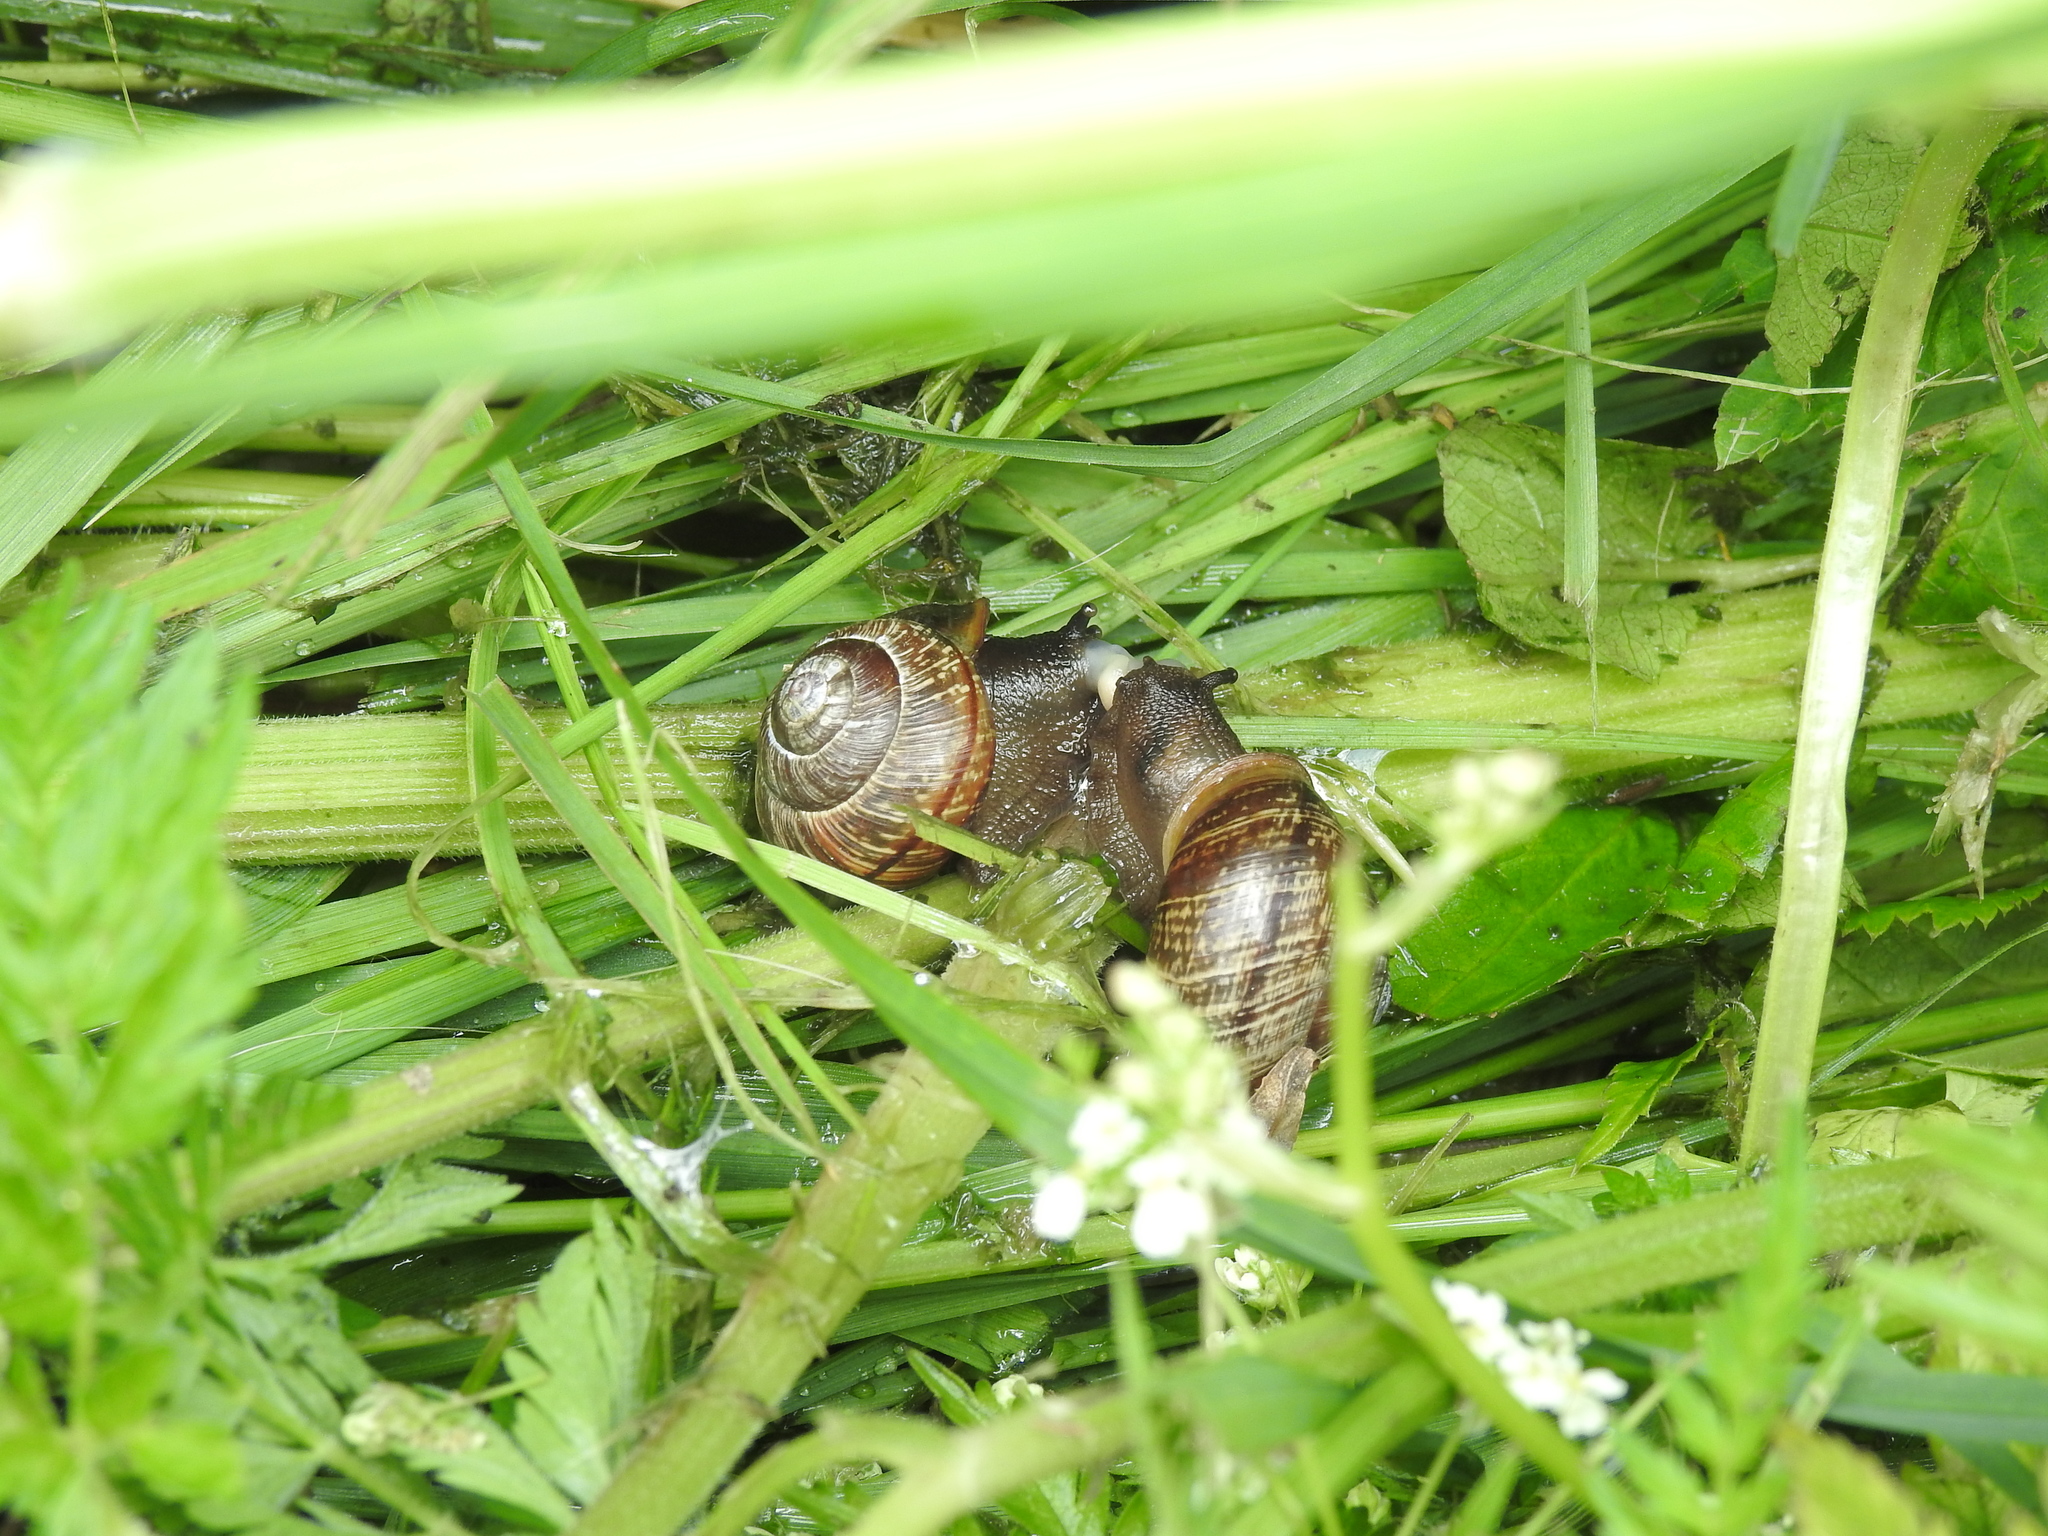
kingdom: Animalia
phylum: Mollusca
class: Gastropoda
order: Stylommatophora
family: Helicidae
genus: Arianta
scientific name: Arianta arbustorum
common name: Copse snail
